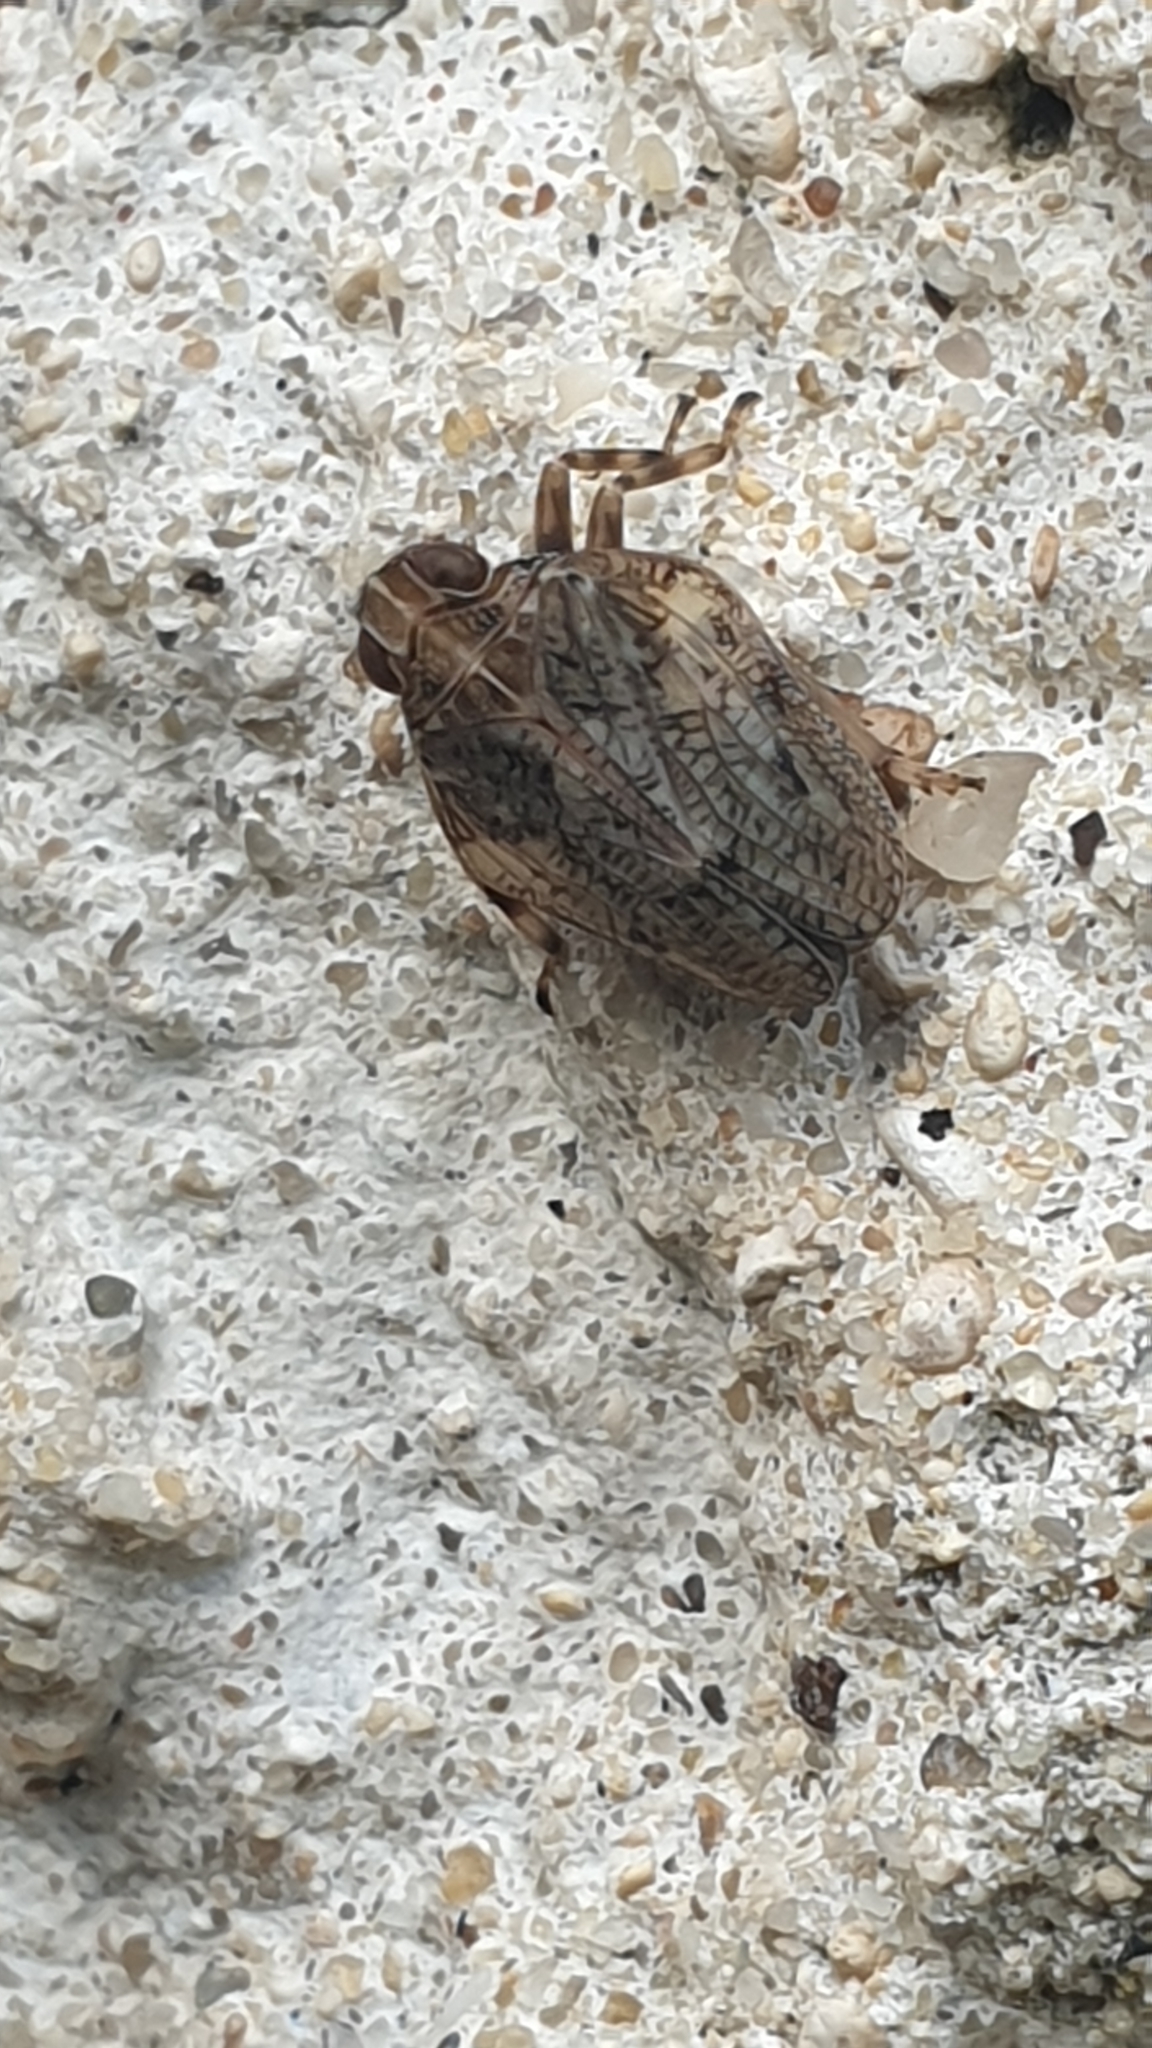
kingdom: Animalia
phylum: Arthropoda
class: Insecta
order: Hemiptera
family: Issidae
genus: Issus
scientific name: Issus coleoptratus
